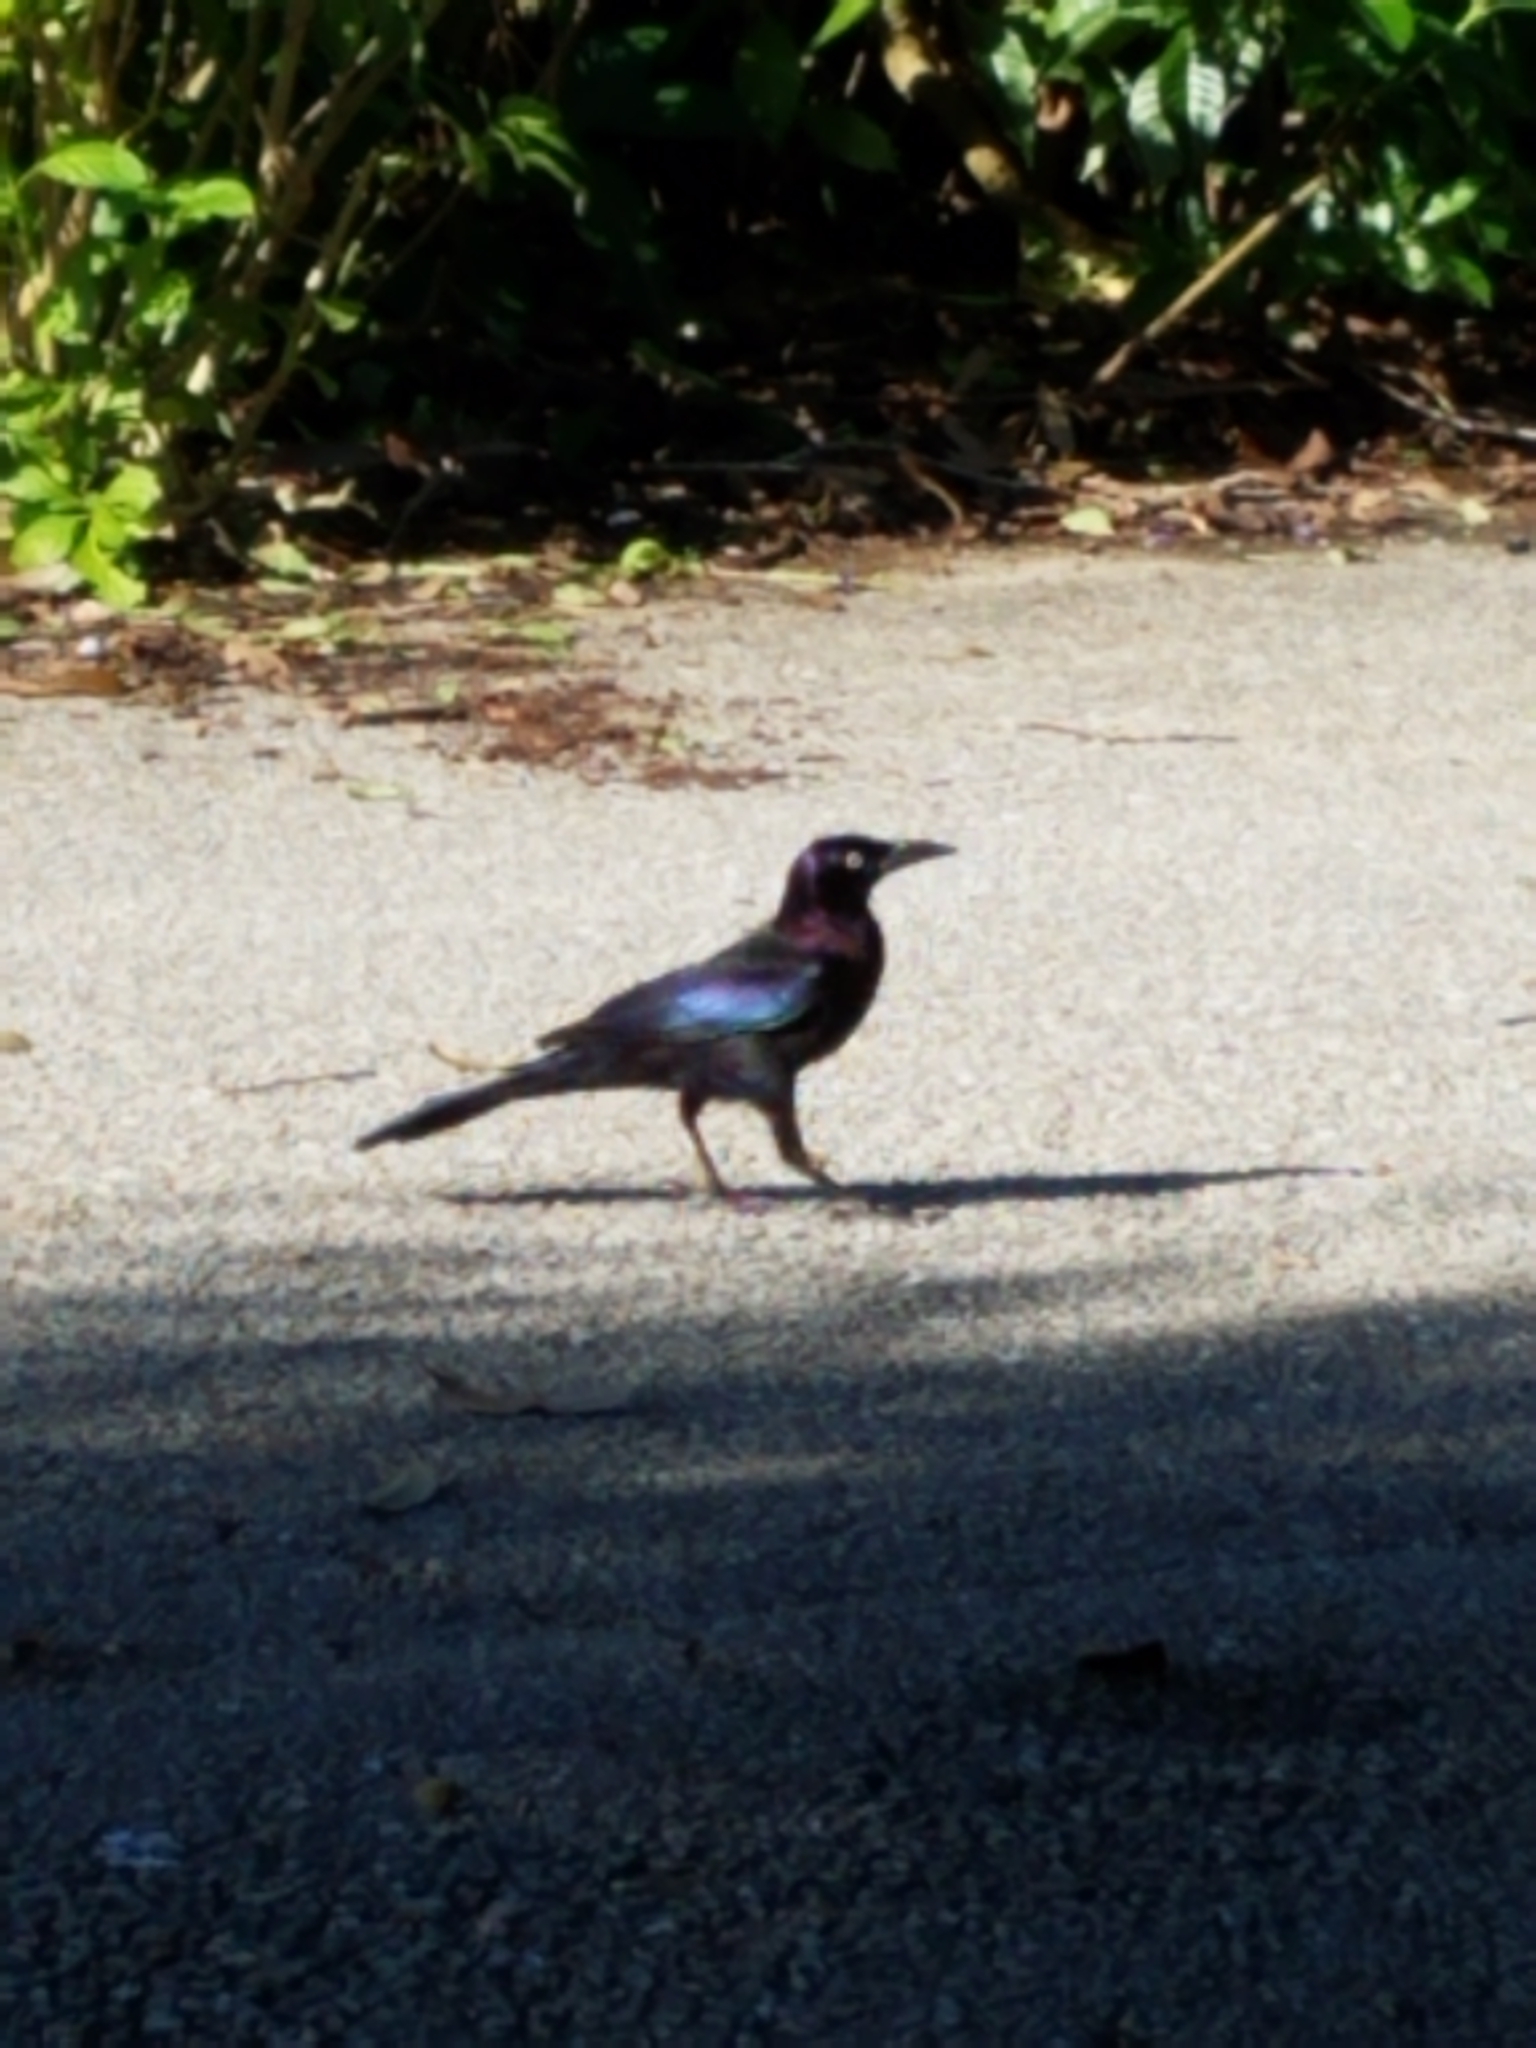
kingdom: Animalia
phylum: Chordata
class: Aves
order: Passeriformes
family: Icteridae
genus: Quiscalus
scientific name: Quiscalus quiscula
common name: Common grackle
